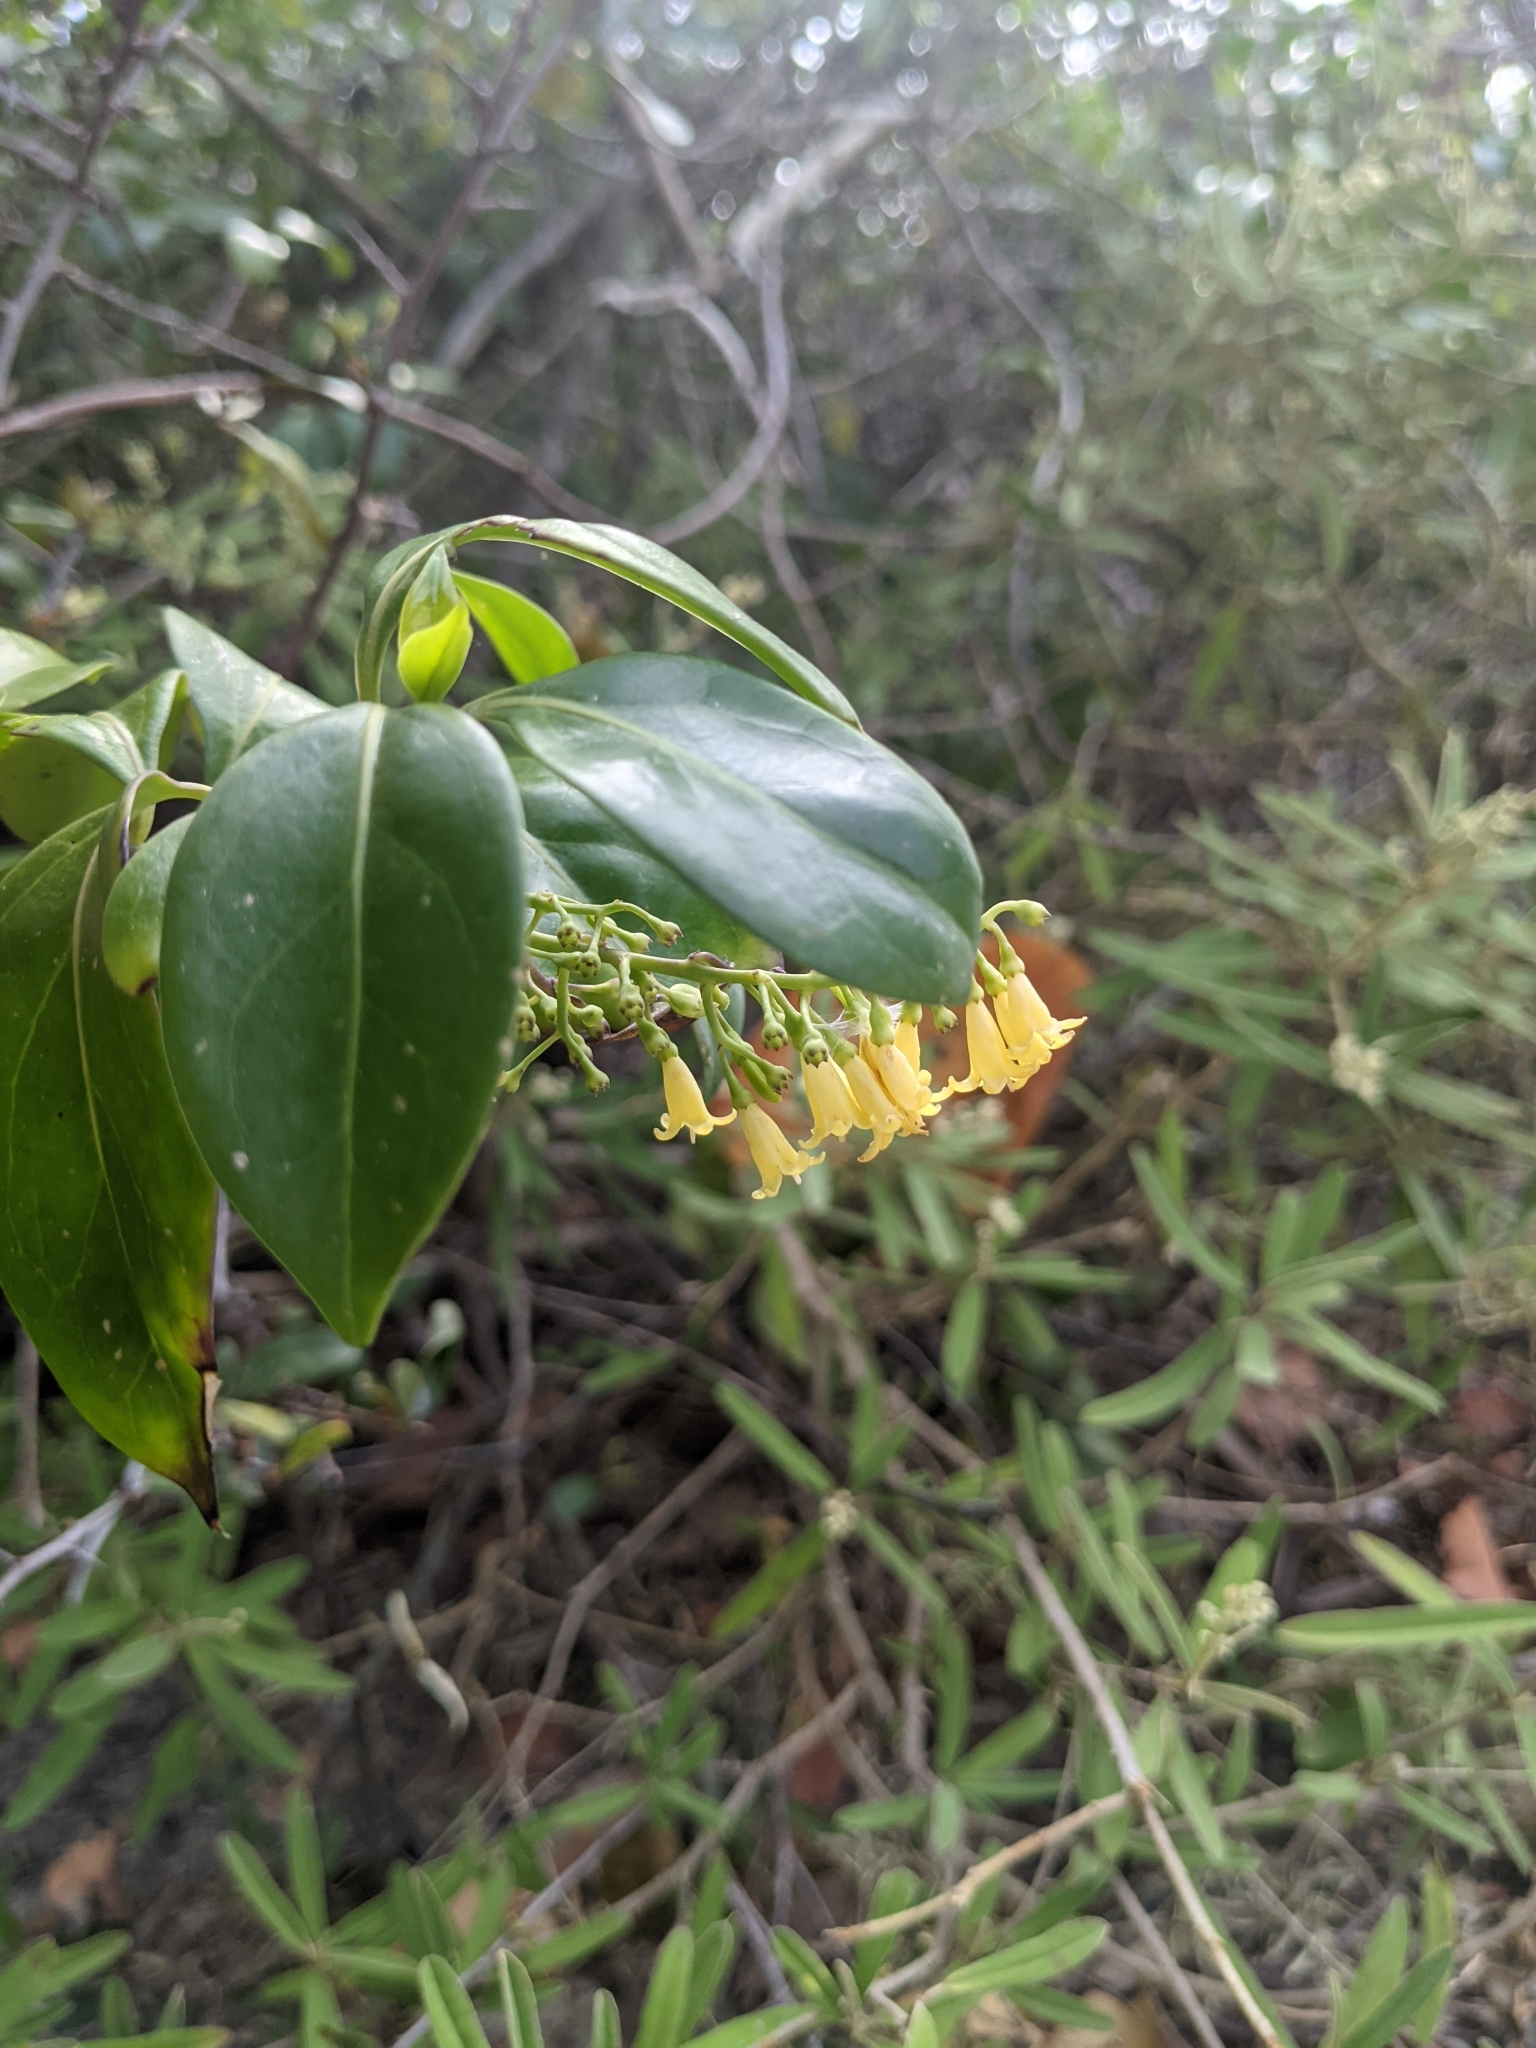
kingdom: Plantae
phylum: Tracheophyta
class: Magnoliopsida
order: Gentianales
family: Rubiaceae
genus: Chiococca
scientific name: Chiococca alba
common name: Snowberry
